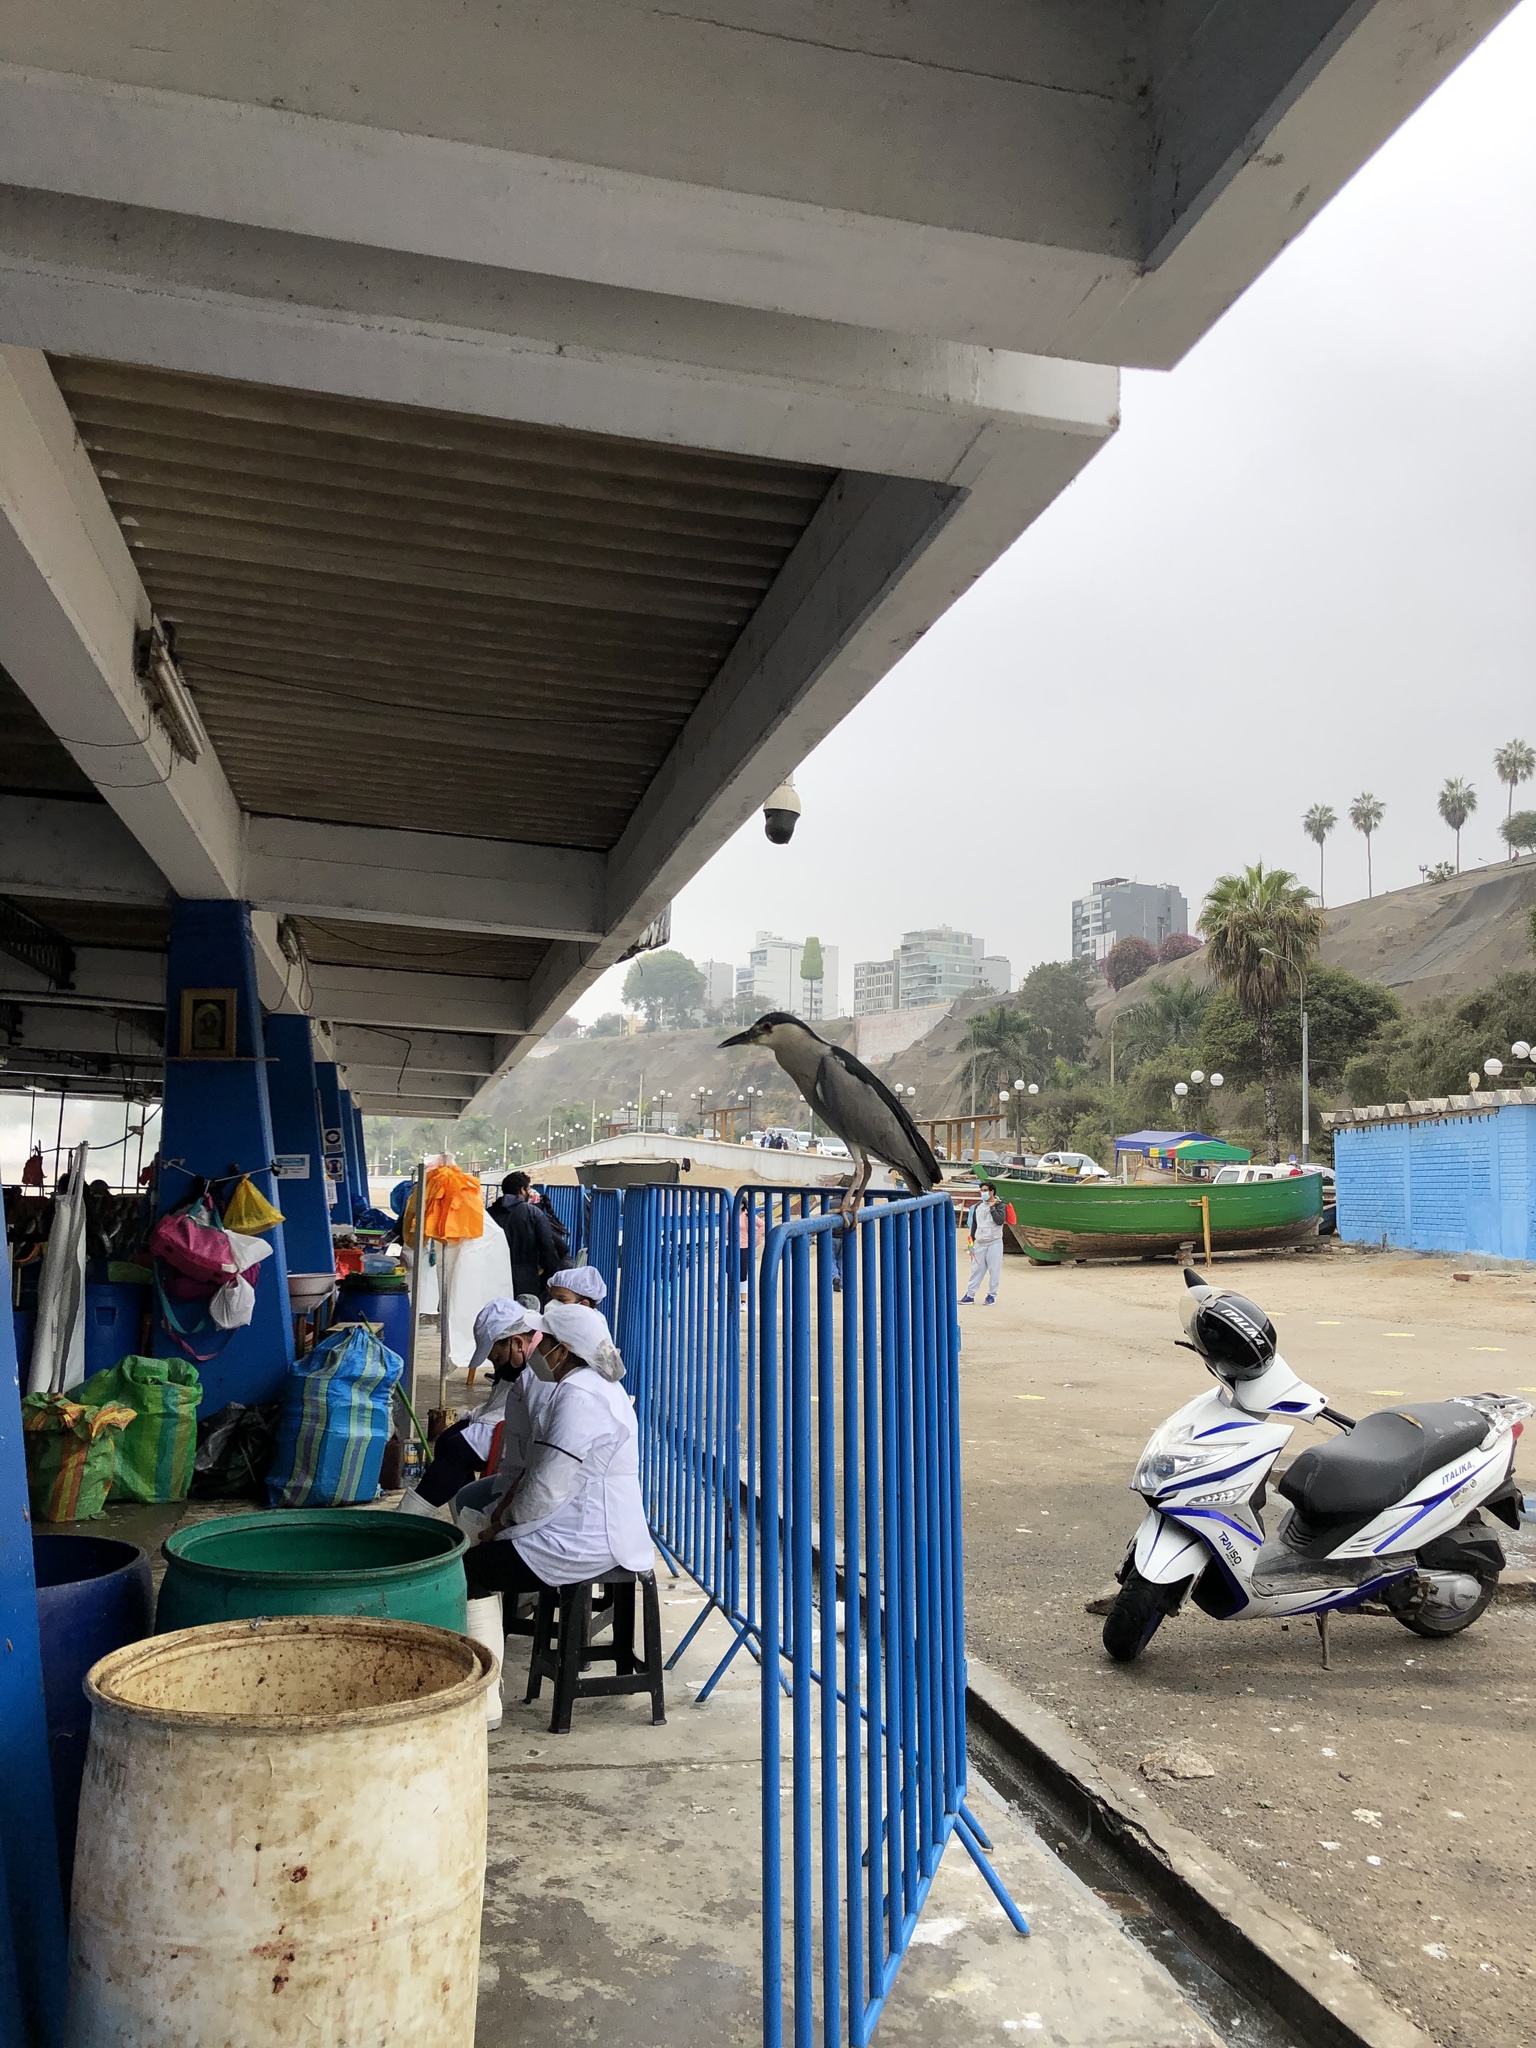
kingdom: Animalia
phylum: Chordata
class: Aves
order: Pelecaniformes
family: Ardeidae
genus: Nycticorax
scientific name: Nycticorax nycticorax
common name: Black-crowned night heron
